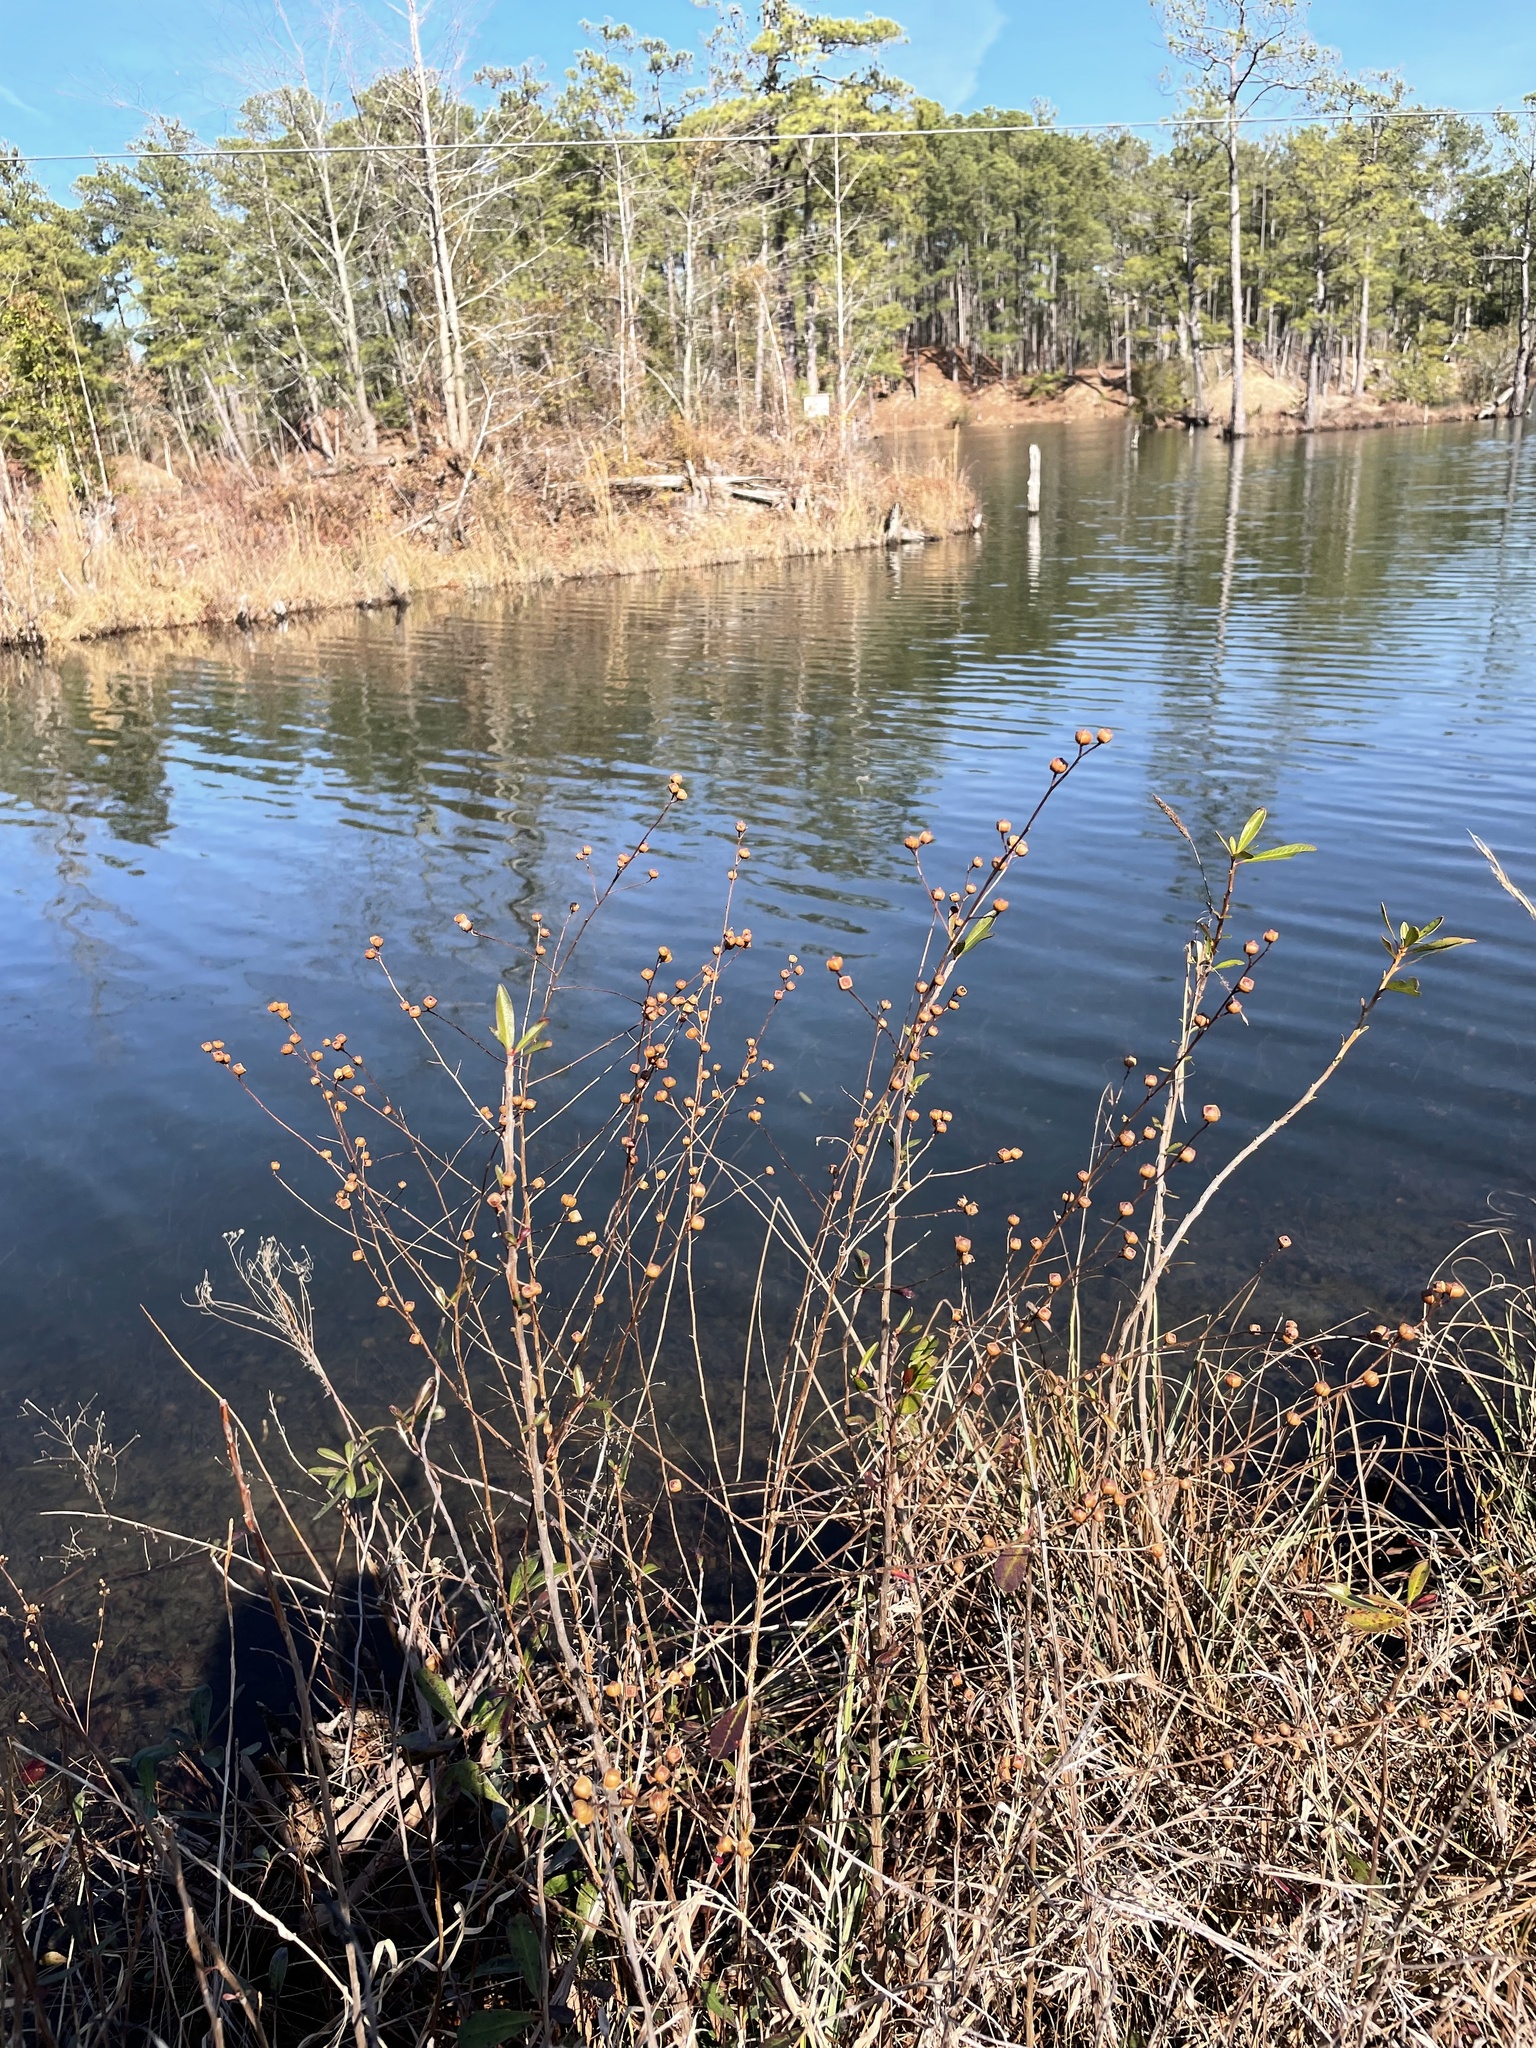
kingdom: Plantae
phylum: Tracheophyta
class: Magnoliopsida
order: Myrtales
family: Onagraceae
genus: Ludwigia
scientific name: Ludwigia alternifolia
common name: Rattlebox
